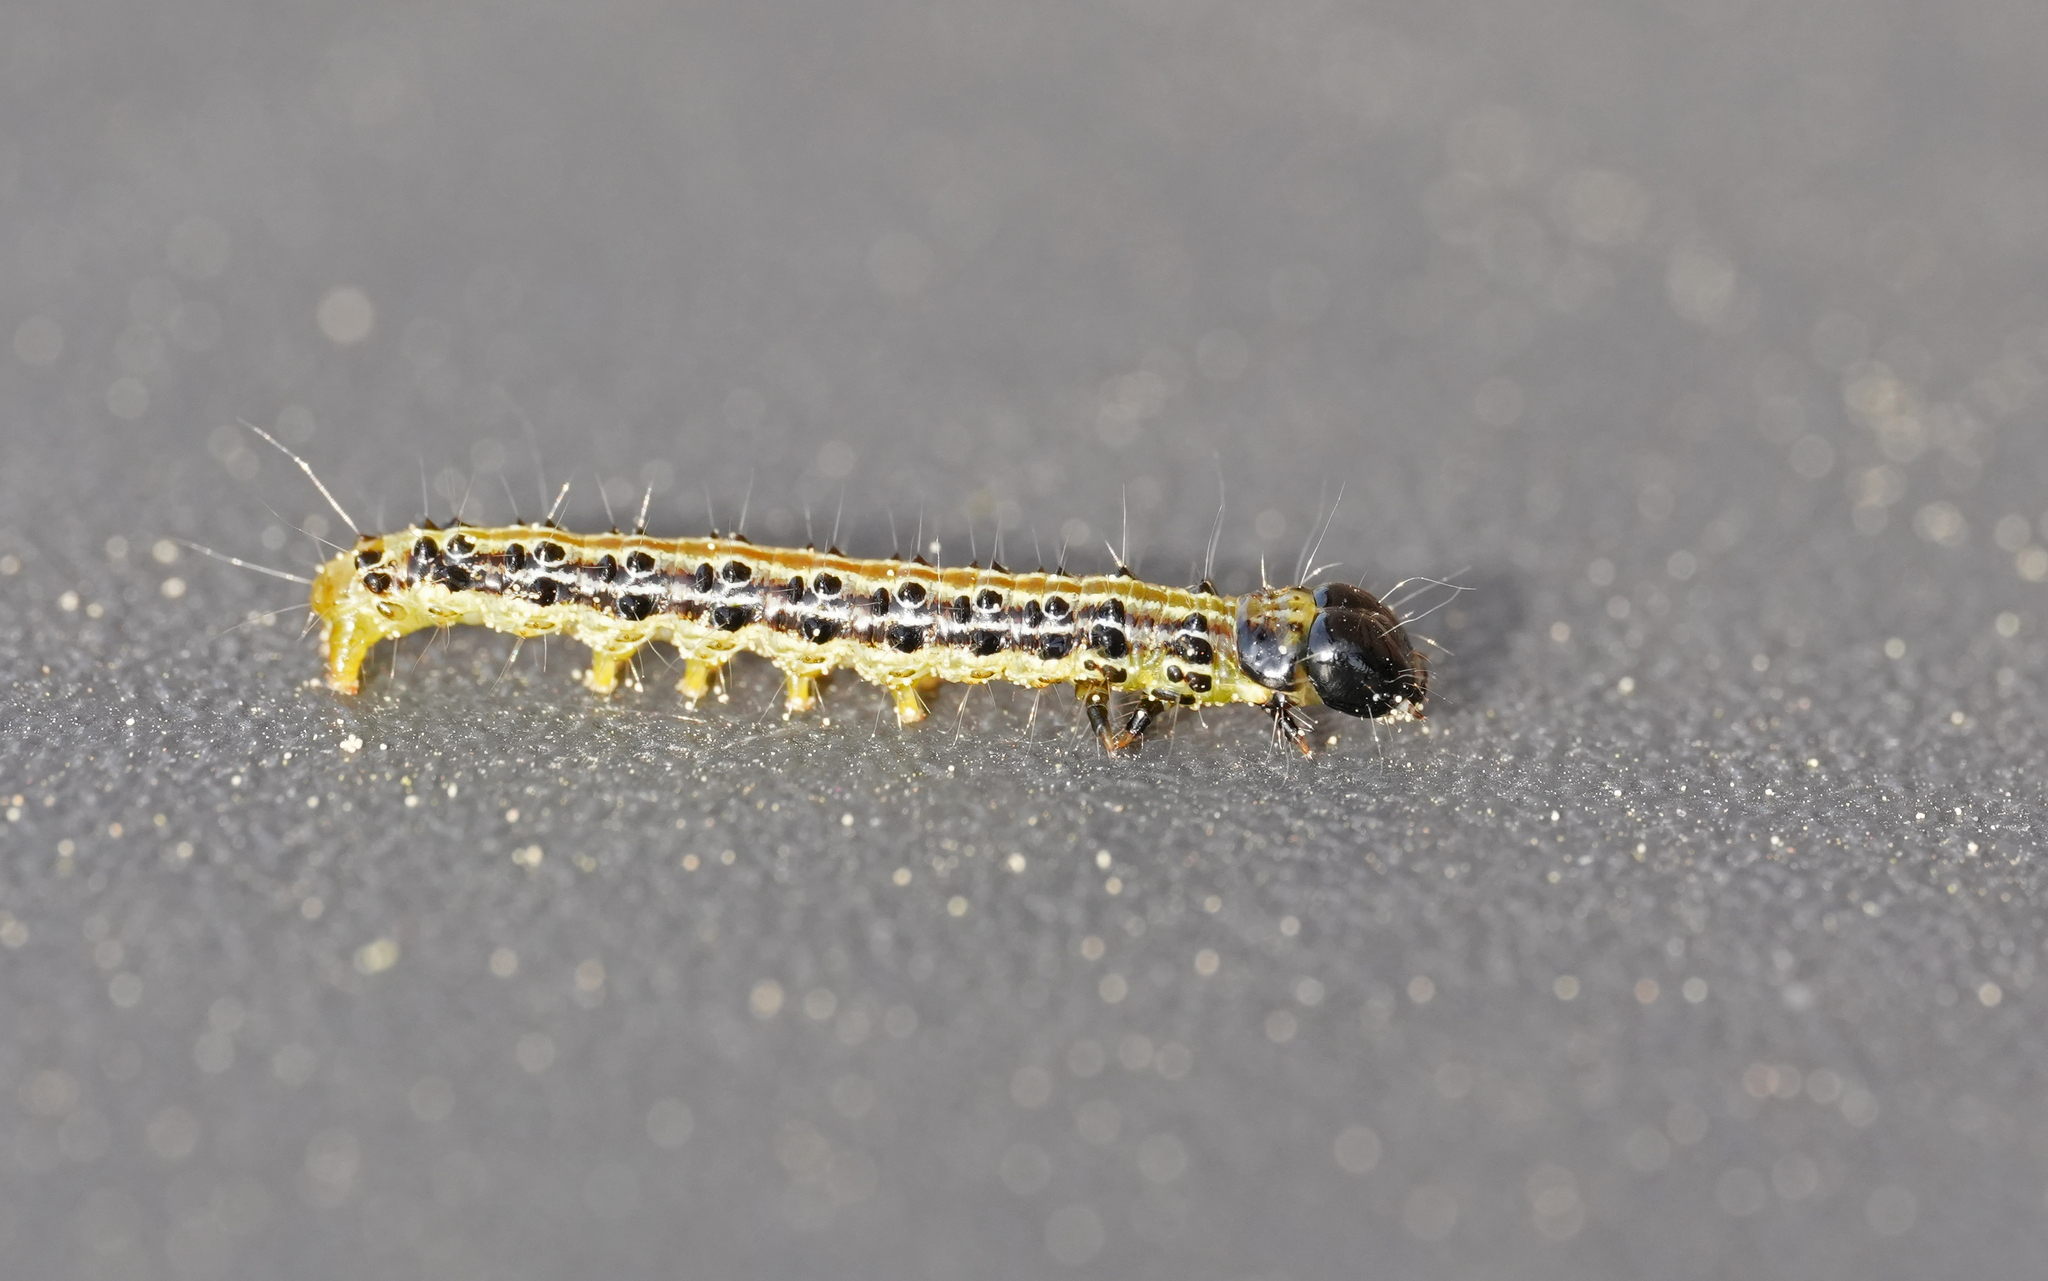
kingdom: Animalia
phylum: Arthropoda
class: Insecta
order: Lepidoptera
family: Crambidae
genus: Cydalima
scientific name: Cydalima perspectalis
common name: Box tree moth
